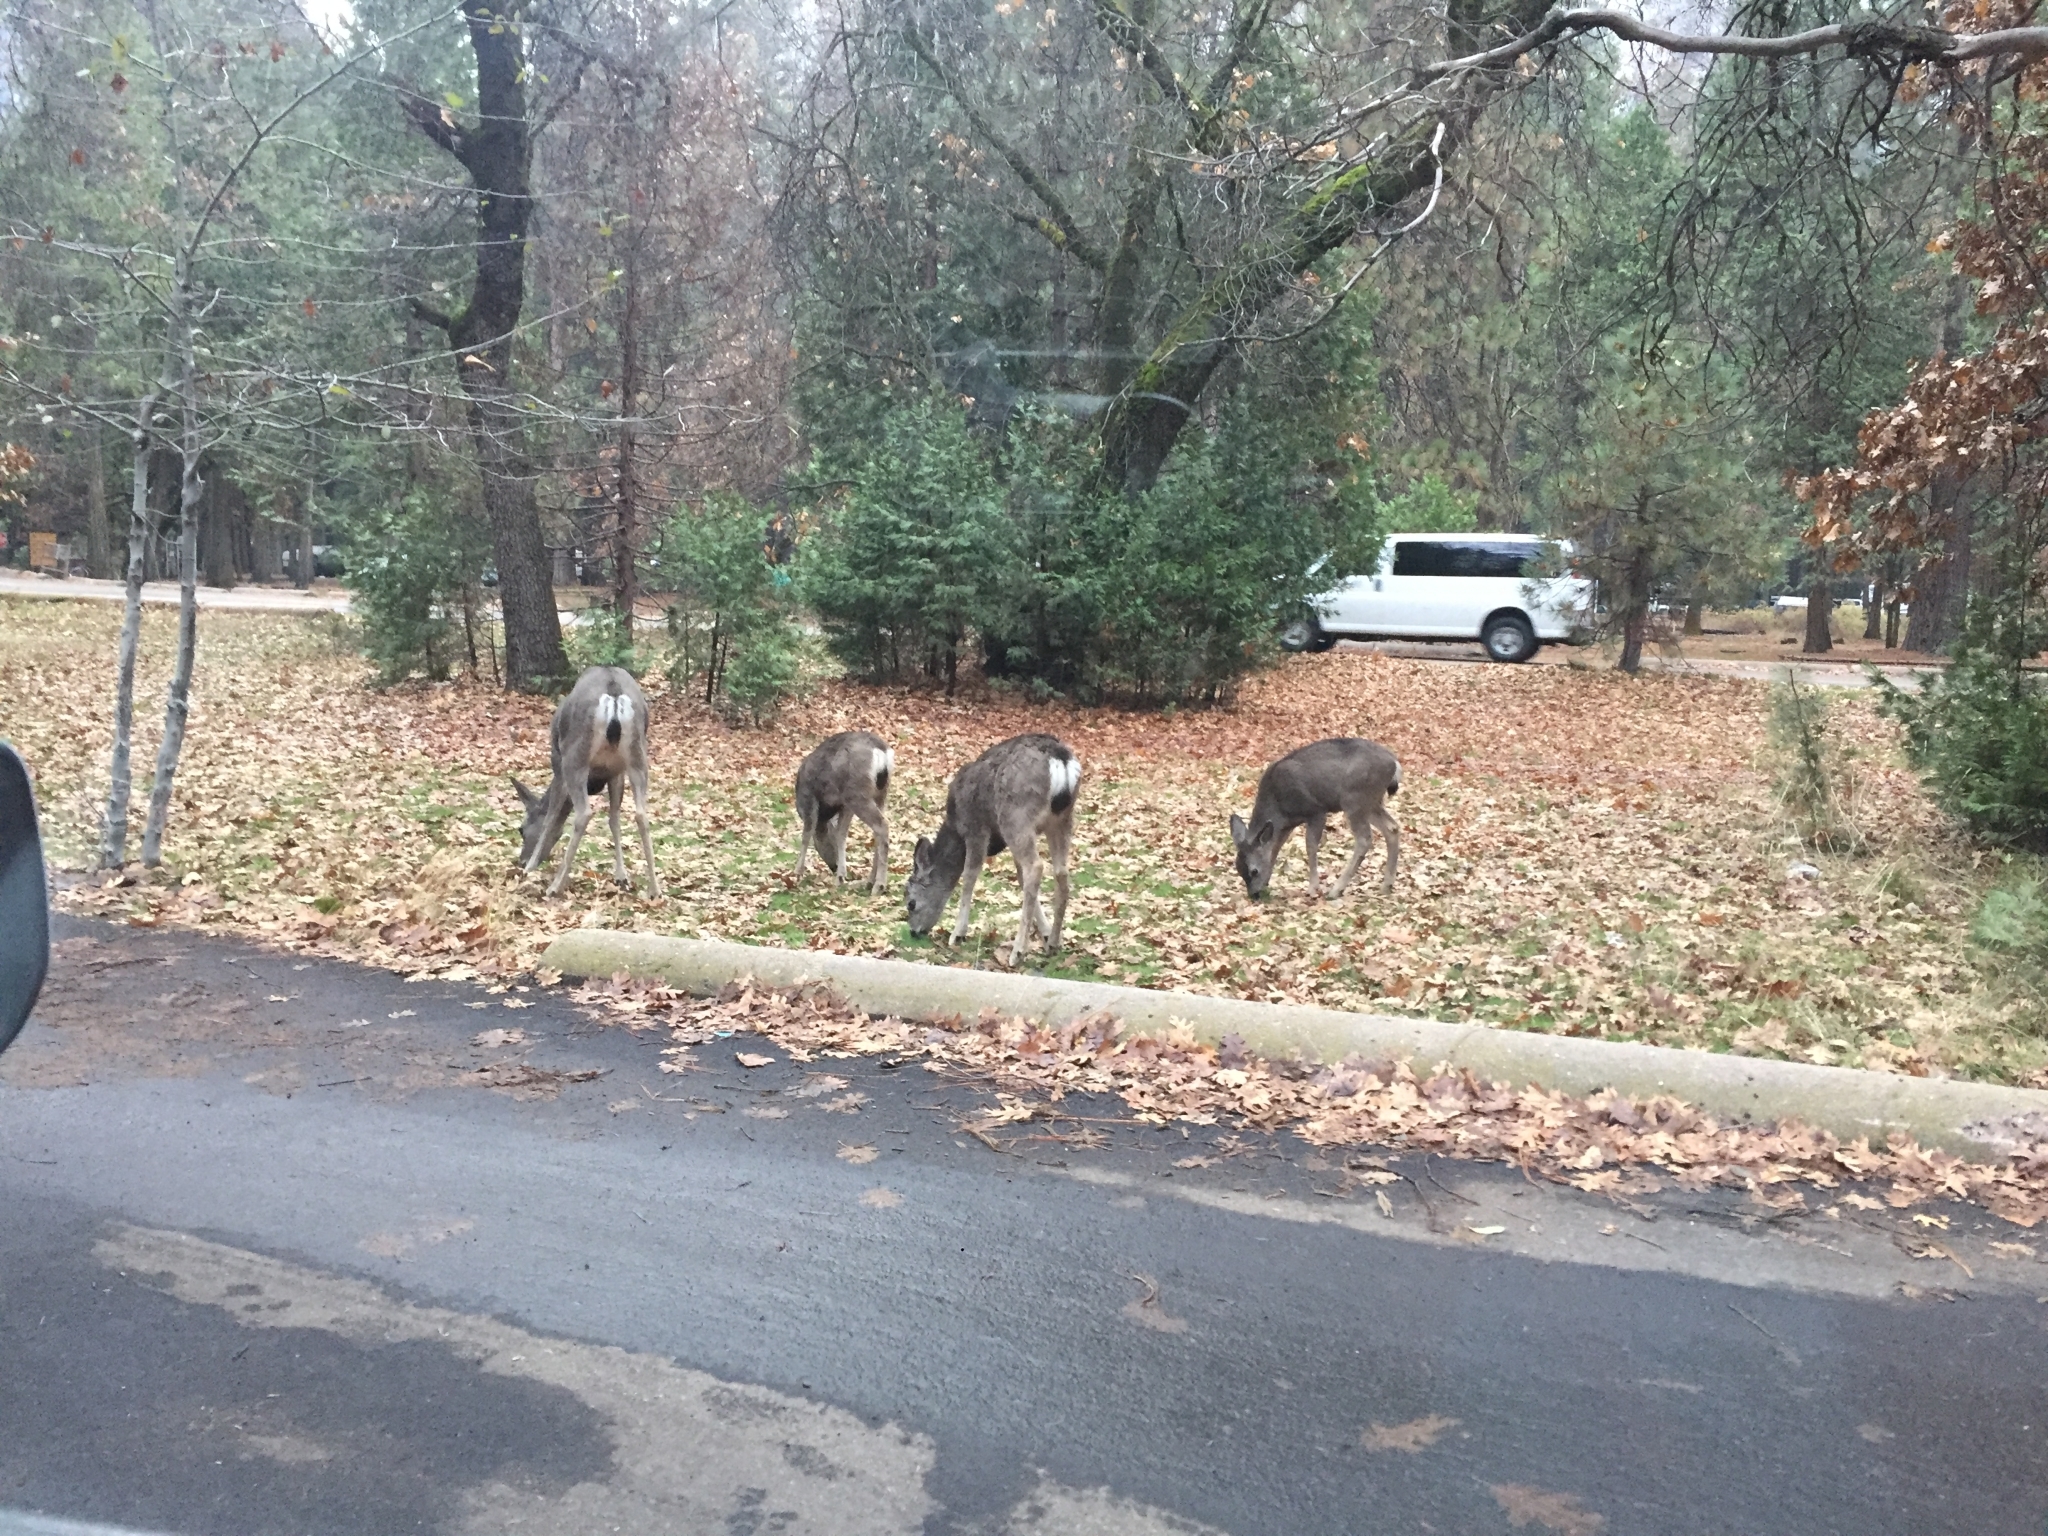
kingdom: Animalia
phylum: Chordata
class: Mammalia
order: Artiodactyla
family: Cervidae
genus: Odocoileus
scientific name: Odocoileus hemionus
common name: Mule deer
